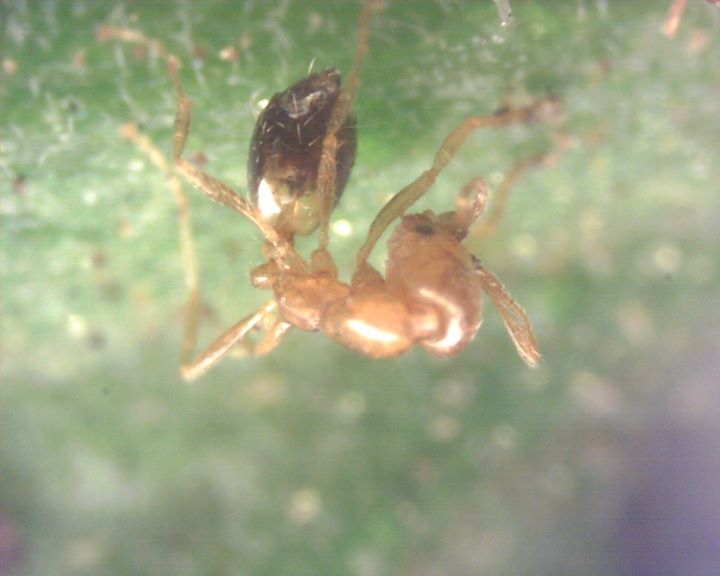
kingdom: Animalia
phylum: Arthropoda
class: Insecta
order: Hymenoptera
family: Formicidae
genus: Monomorium
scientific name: Monomorium pharaonis
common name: Pharaoh ant
